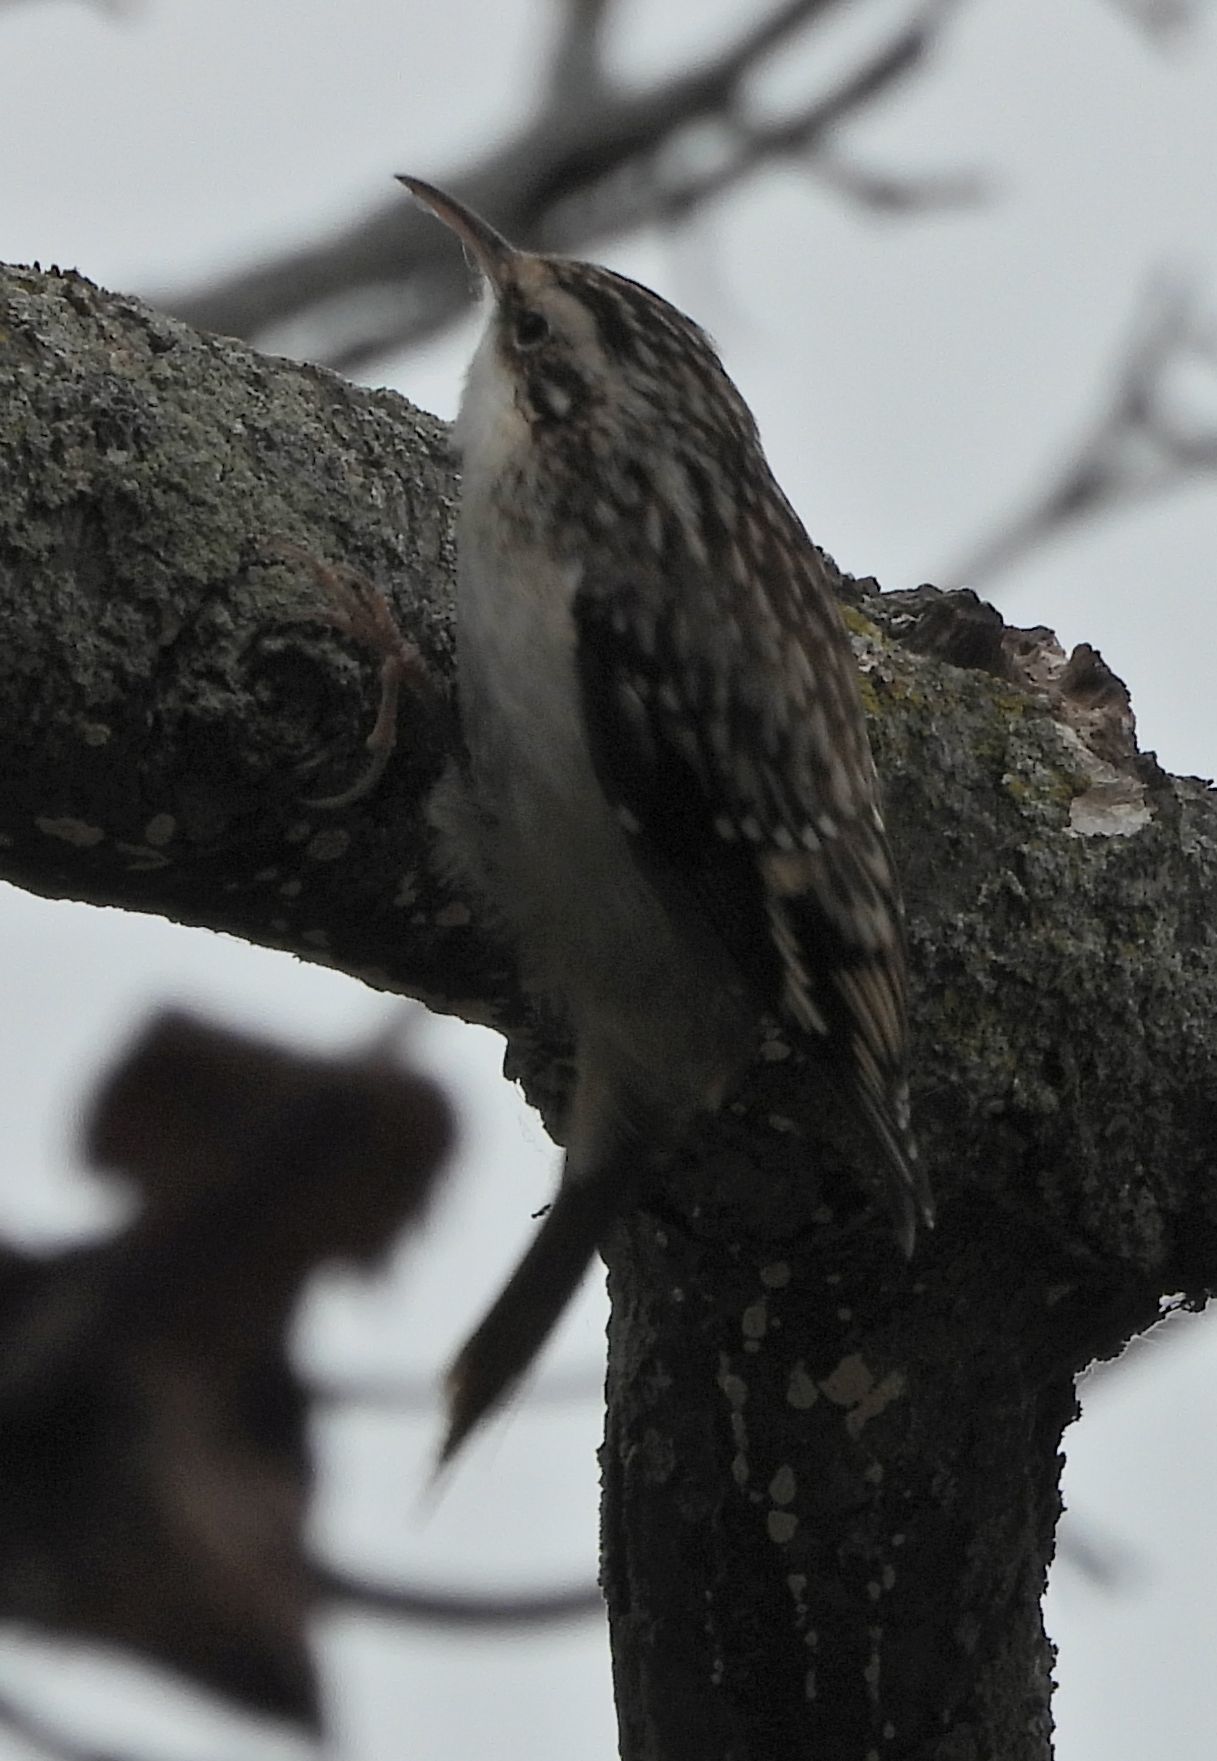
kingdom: Animalia
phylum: Chordata
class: Aves
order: Passeriformes
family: Certhiidae
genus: Certhia
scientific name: Certhia americana
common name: Brown creeper
